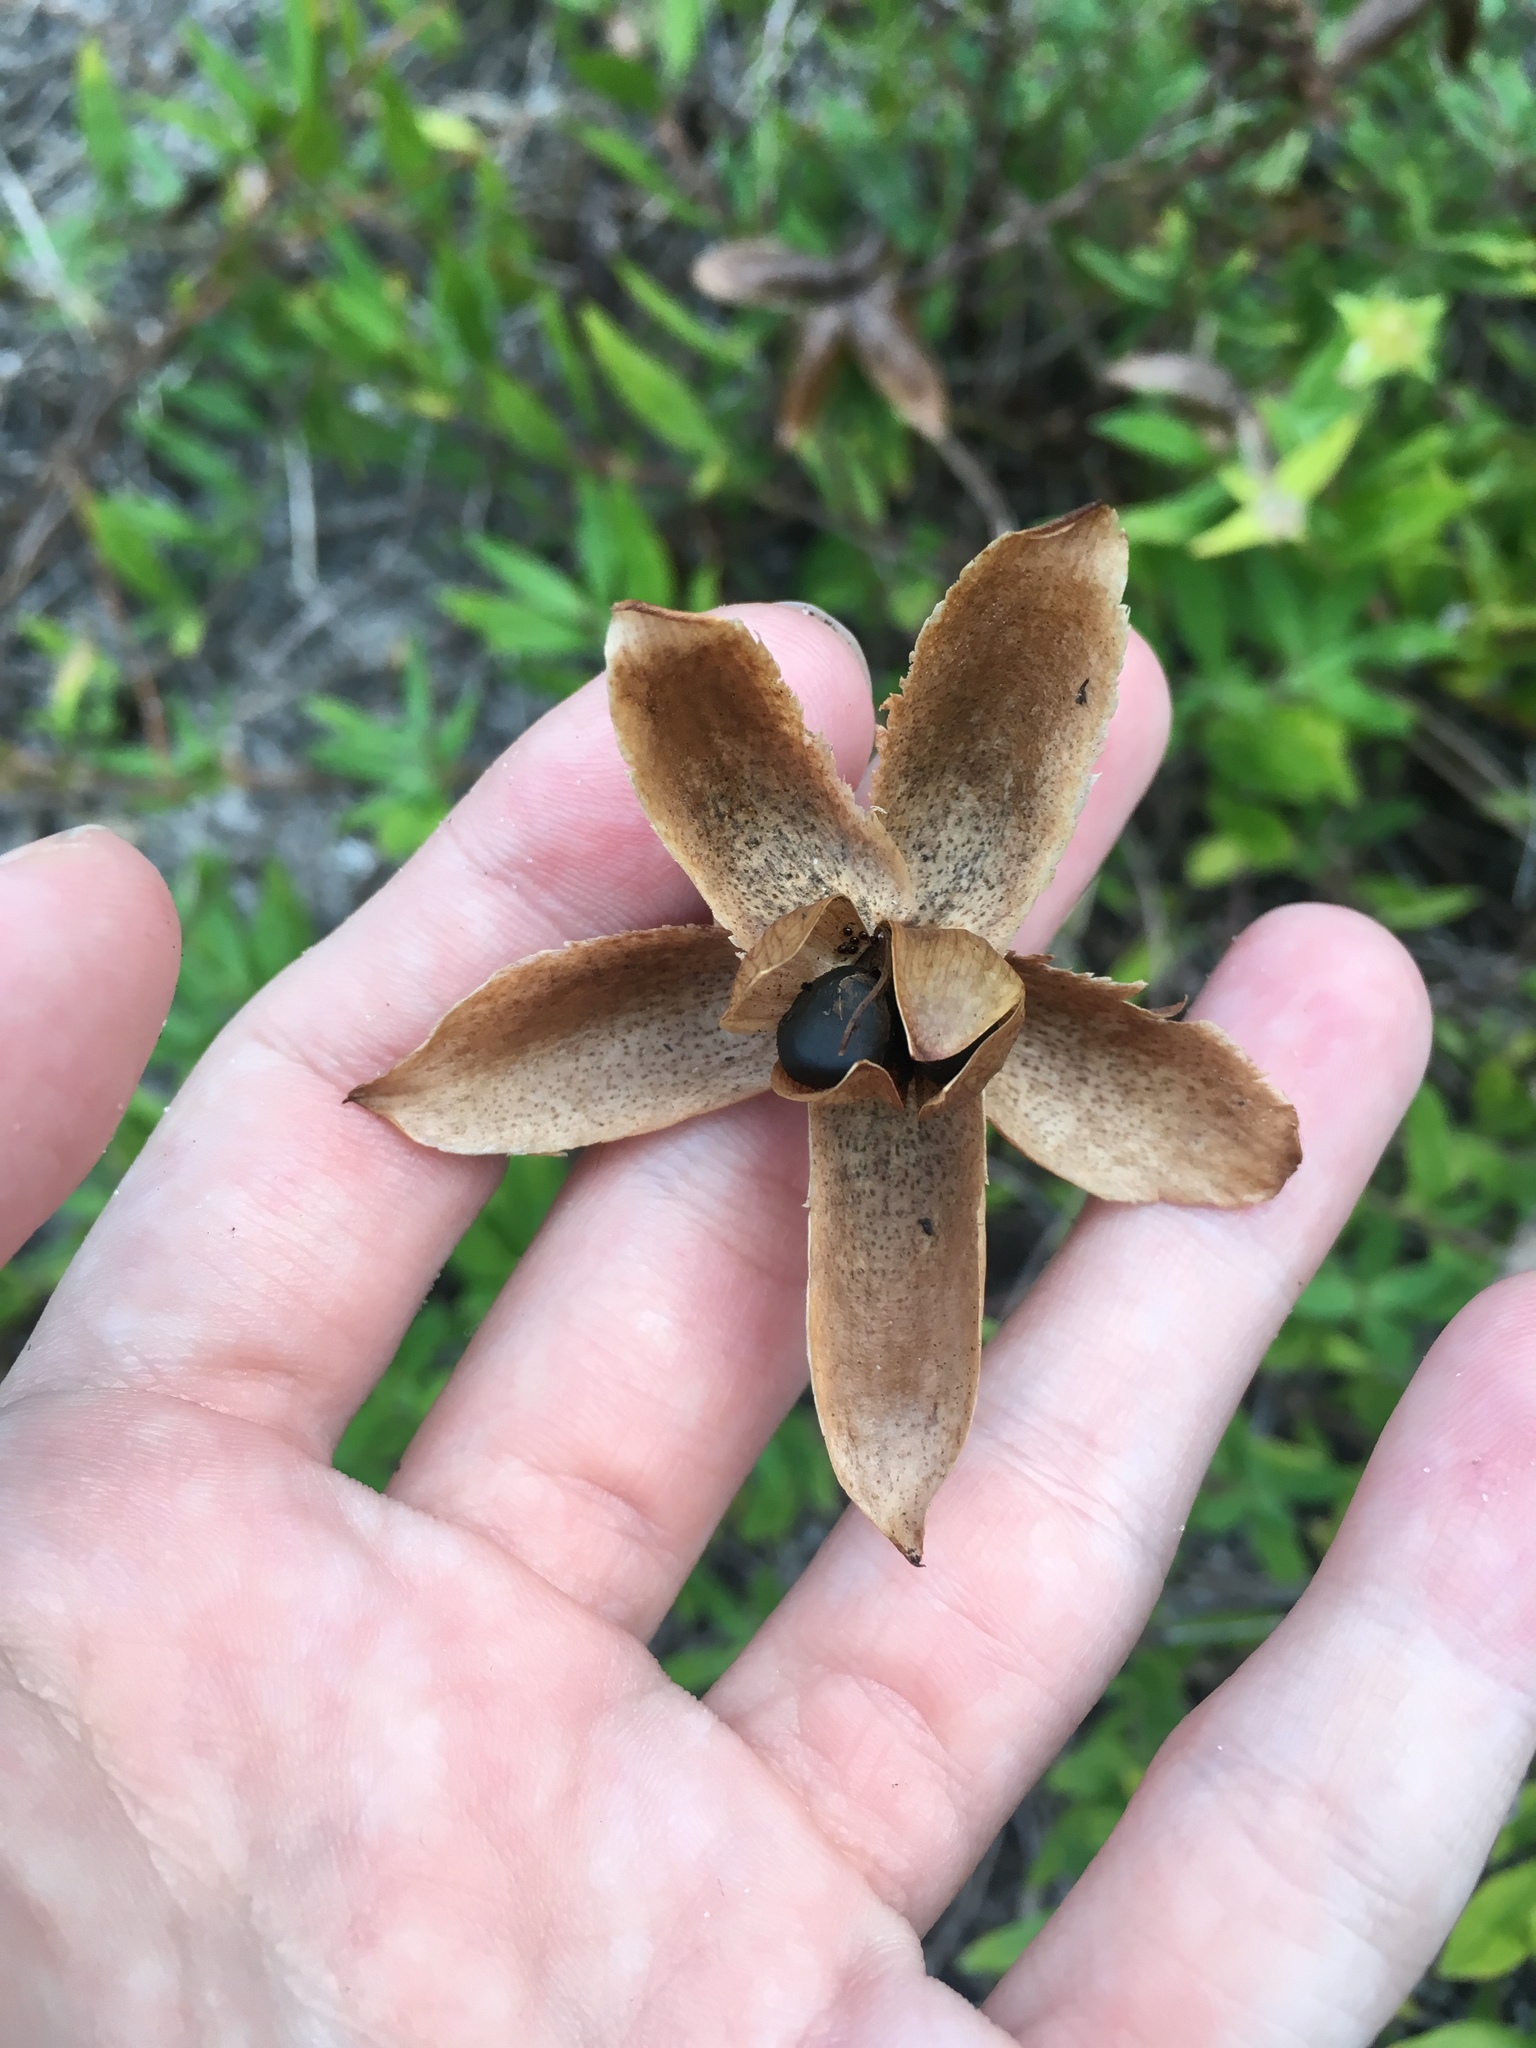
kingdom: Plantae
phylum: Tracheophyta
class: Magnoliopsida
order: Solanales
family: Convolvulaceae
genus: Distimake
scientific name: Distimake dissectus
